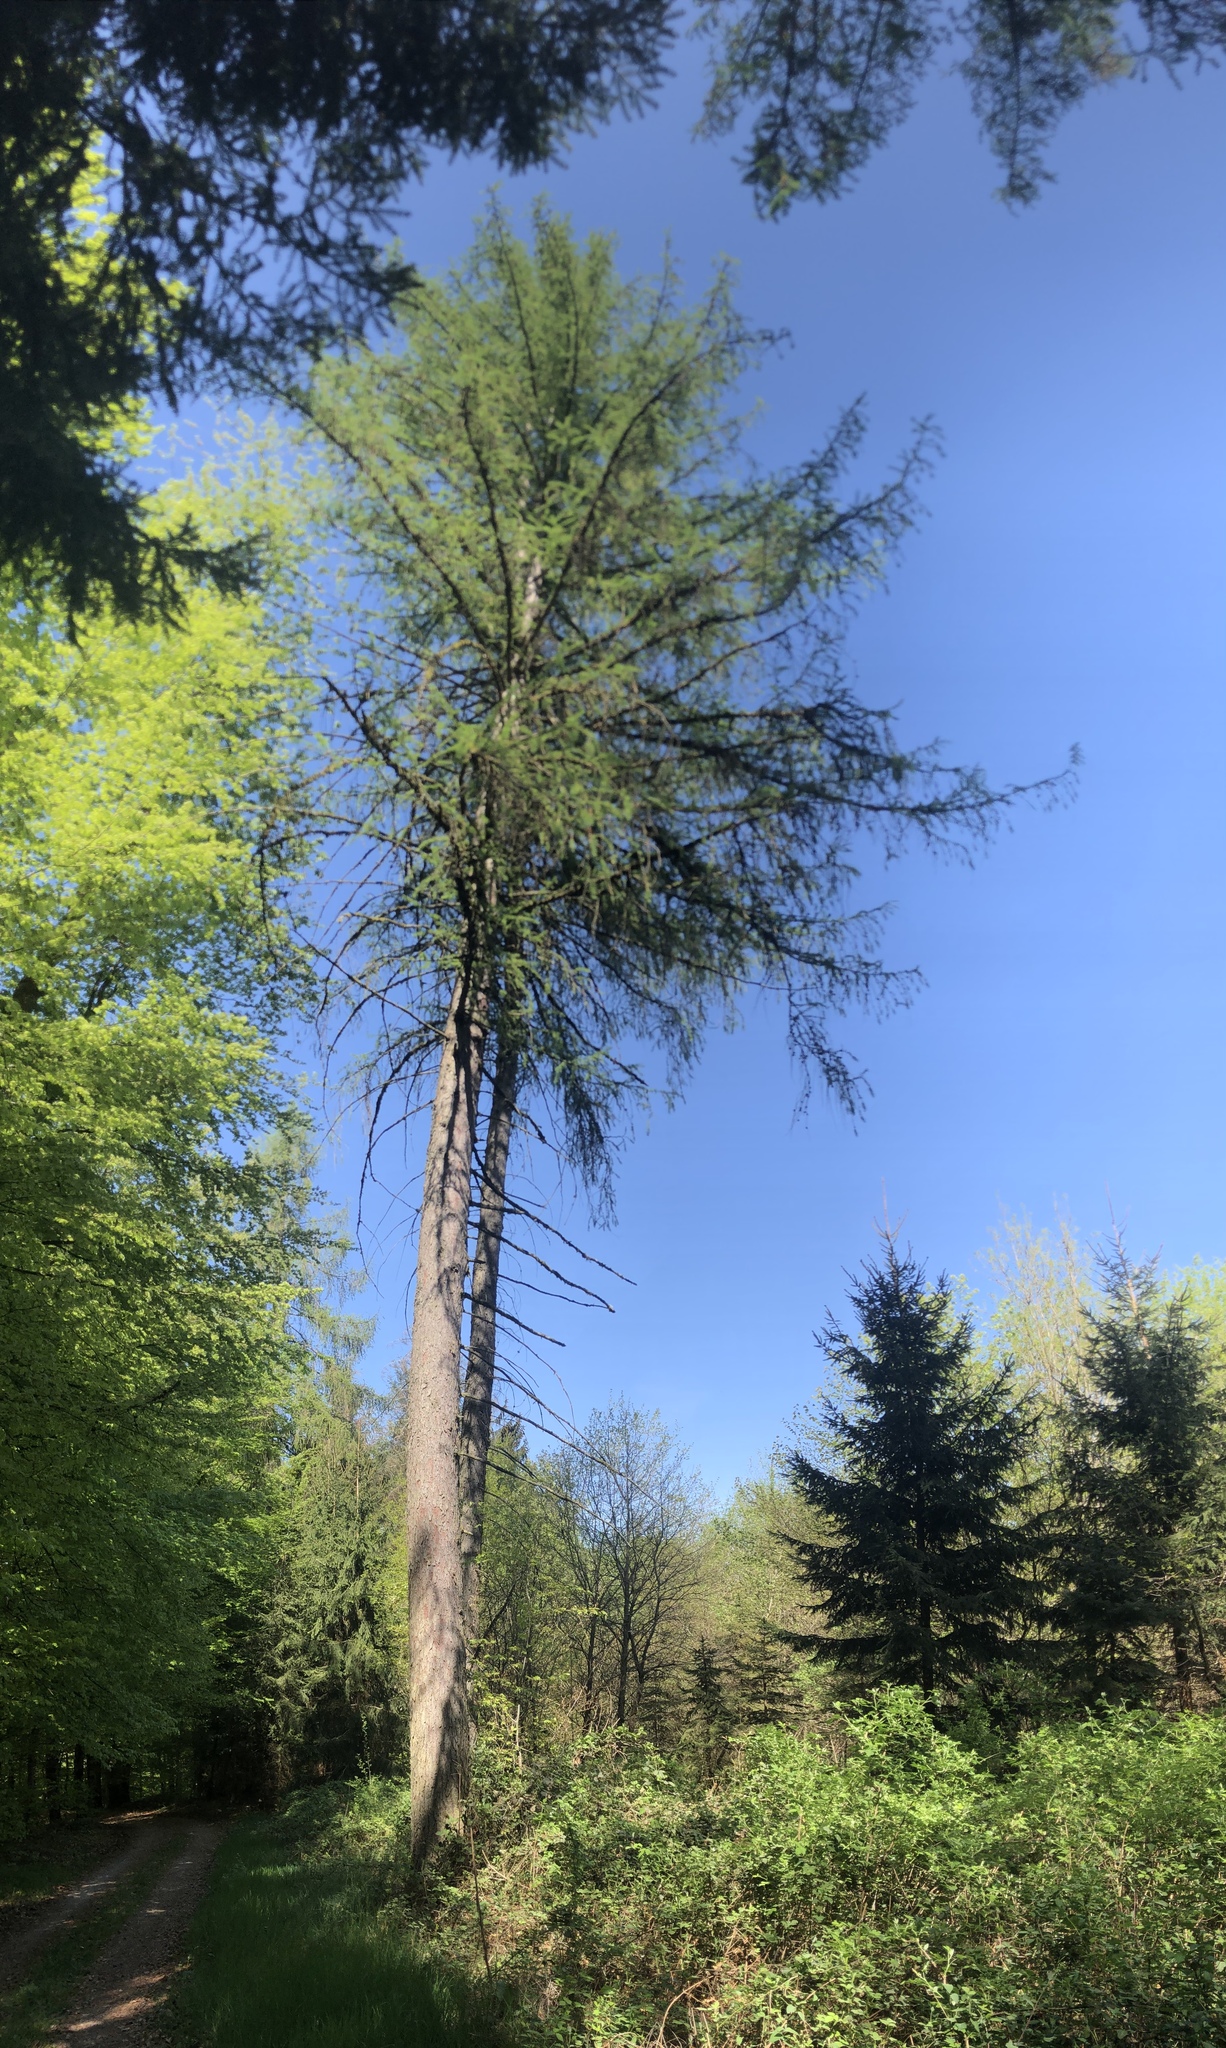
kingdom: Plantae
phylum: Tracheophyta
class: Pinopsida
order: Pinales
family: Pinaceae
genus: Larix
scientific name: Larix decidua
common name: European larch
